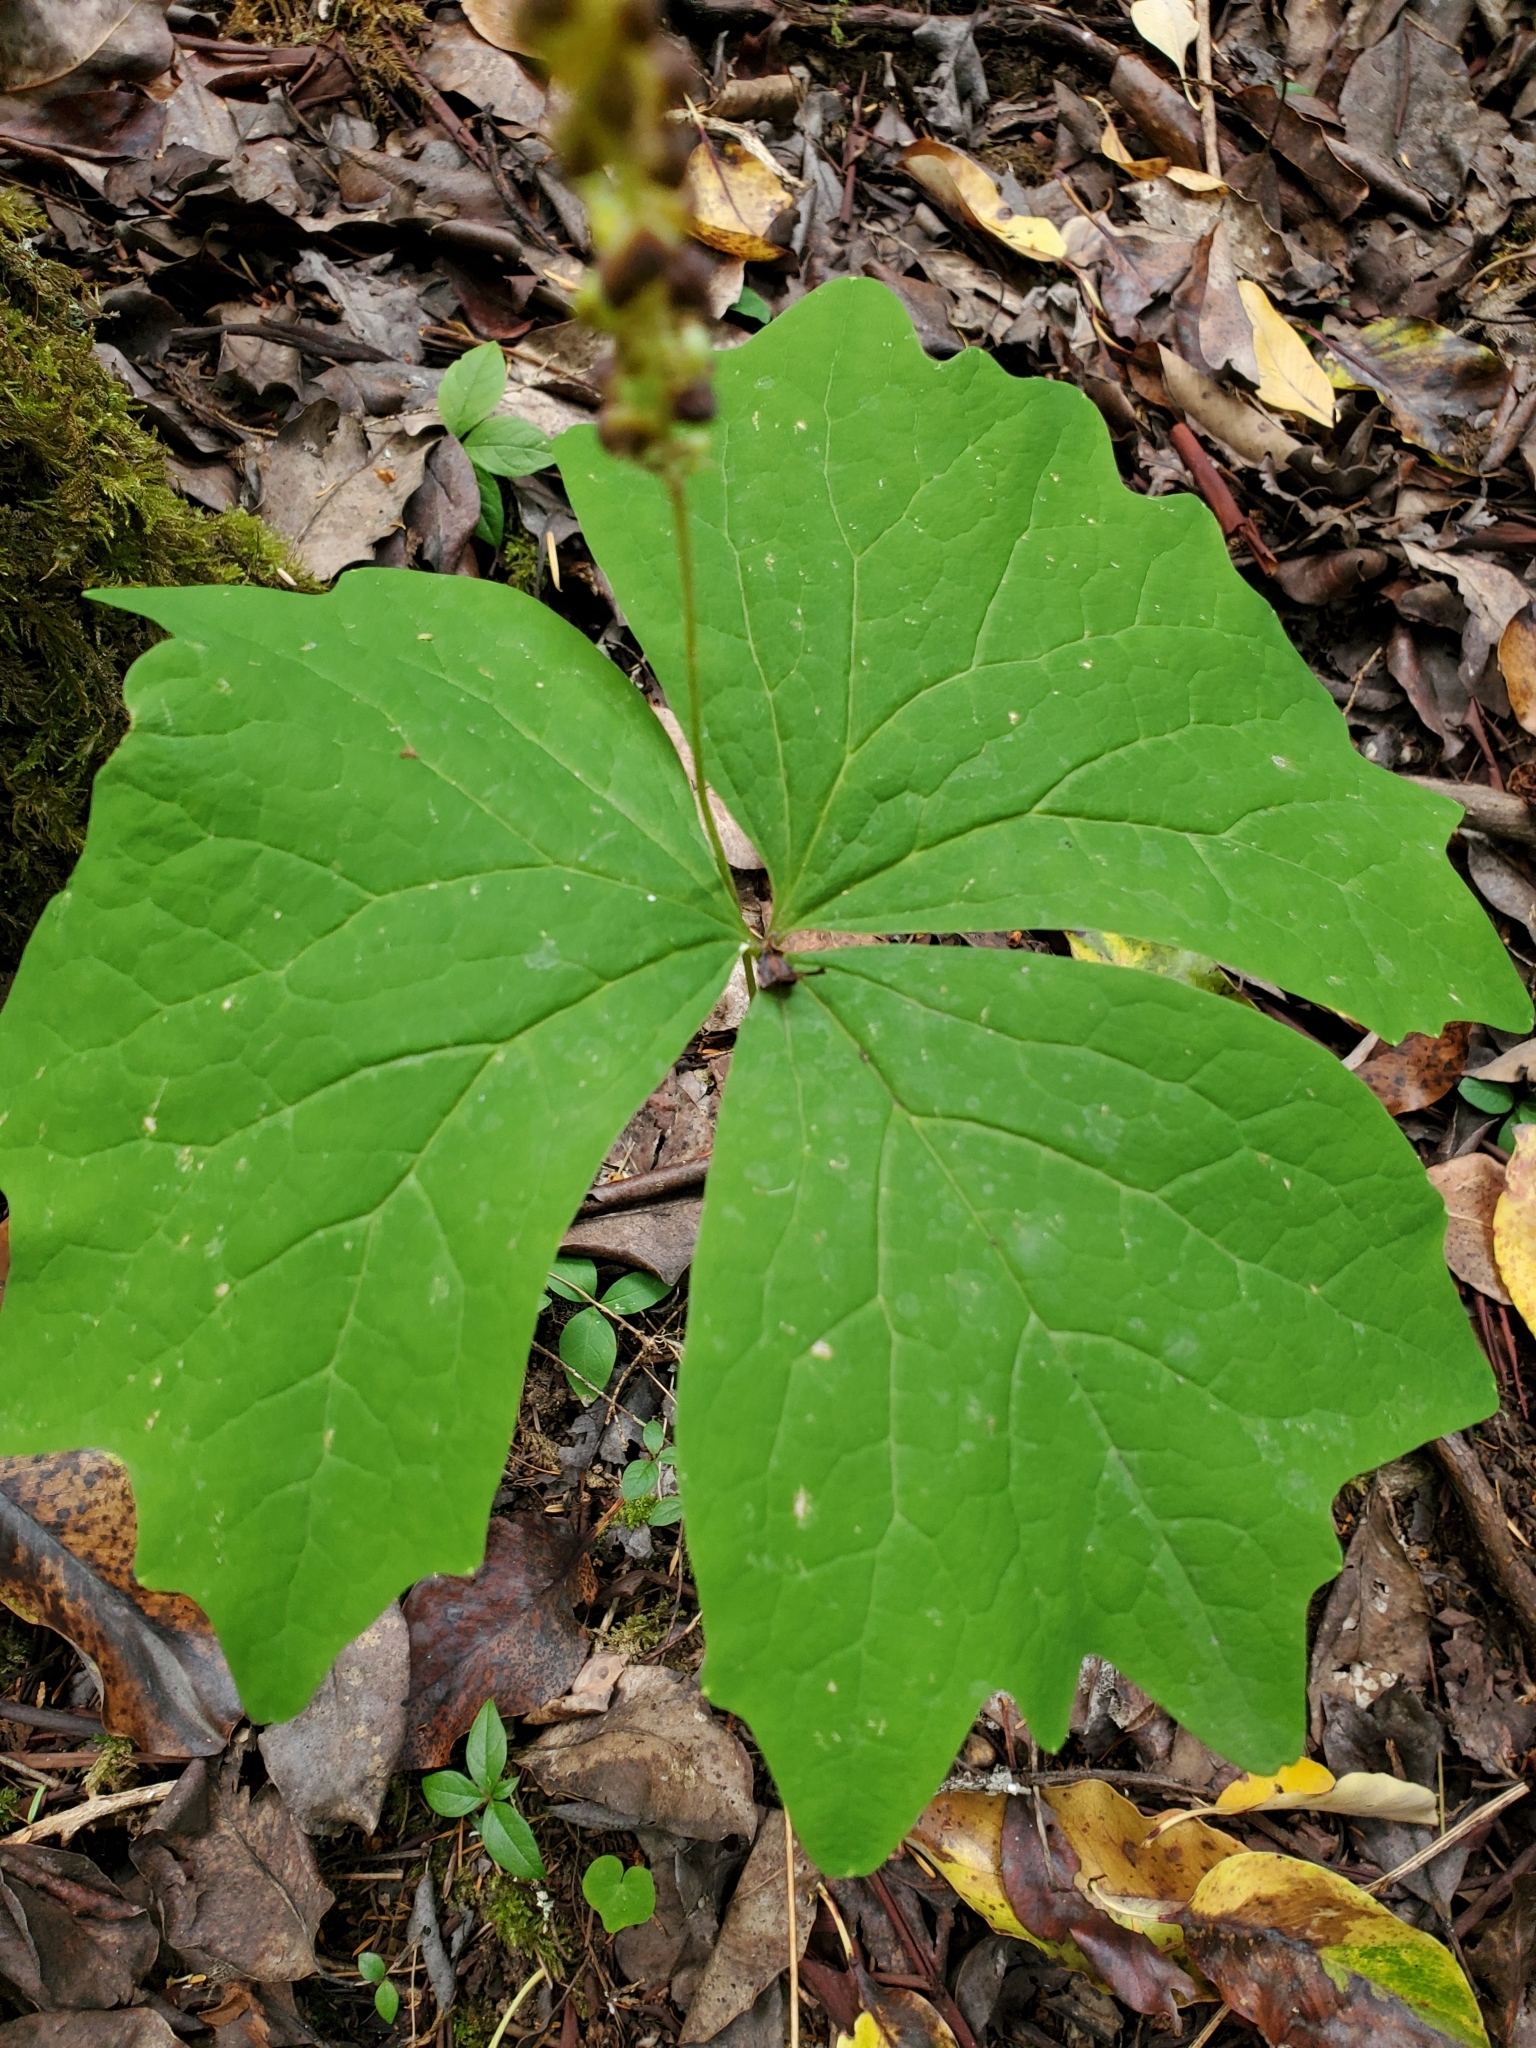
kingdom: Plantae
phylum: Tracheophyta
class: Magnoliopsida
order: Ranunculales
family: Berberidaceae
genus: Achlys
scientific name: Achlys triphylla
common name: Vanilla-leaf
